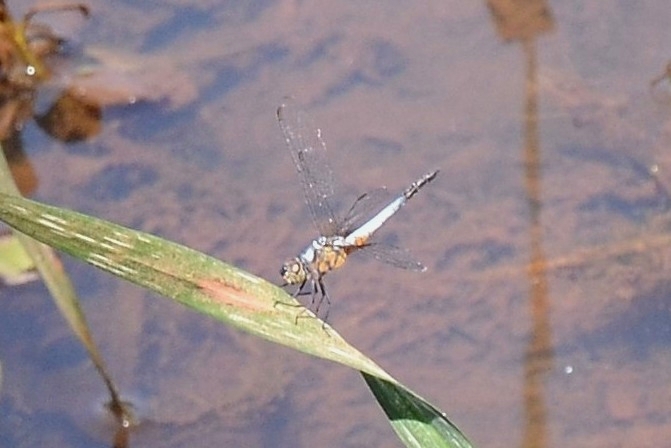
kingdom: Animalia
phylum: Arthropoda
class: Insecta
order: Odonata
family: Libellulidae
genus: Brachydiplax
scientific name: Brachydiplax chalybea
